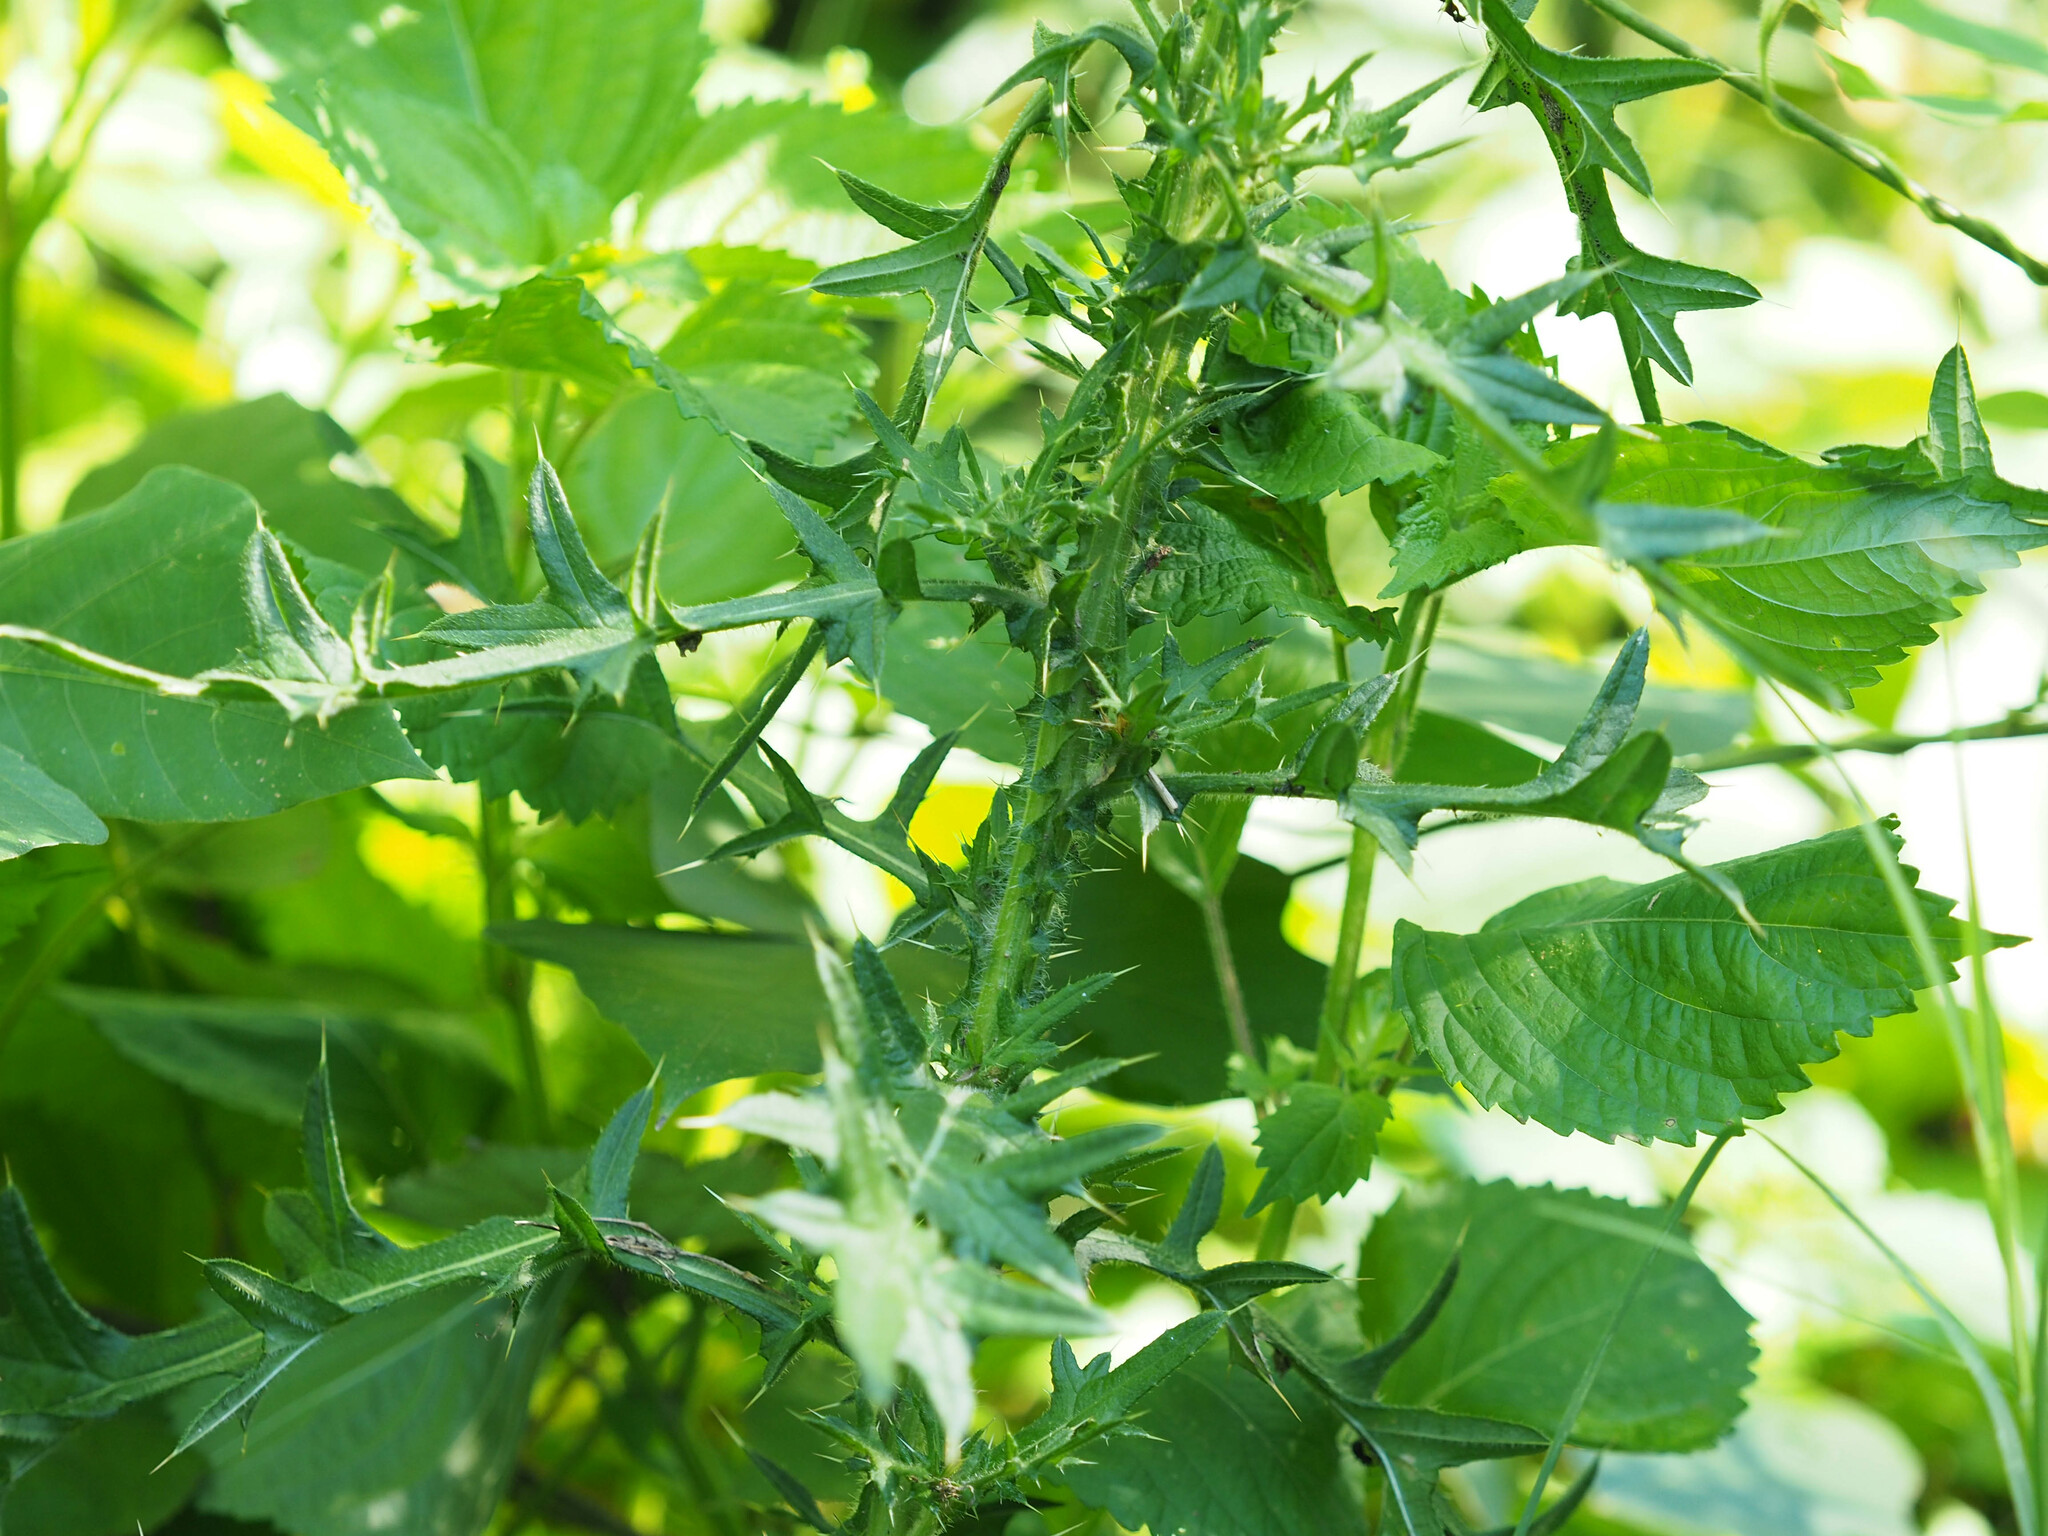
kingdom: Plantae
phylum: Tracheophyta
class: Magnoliopsida
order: Asterales
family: Asteraceae
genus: Cirsium
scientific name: Cirsium vulgare
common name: Bull thistle
